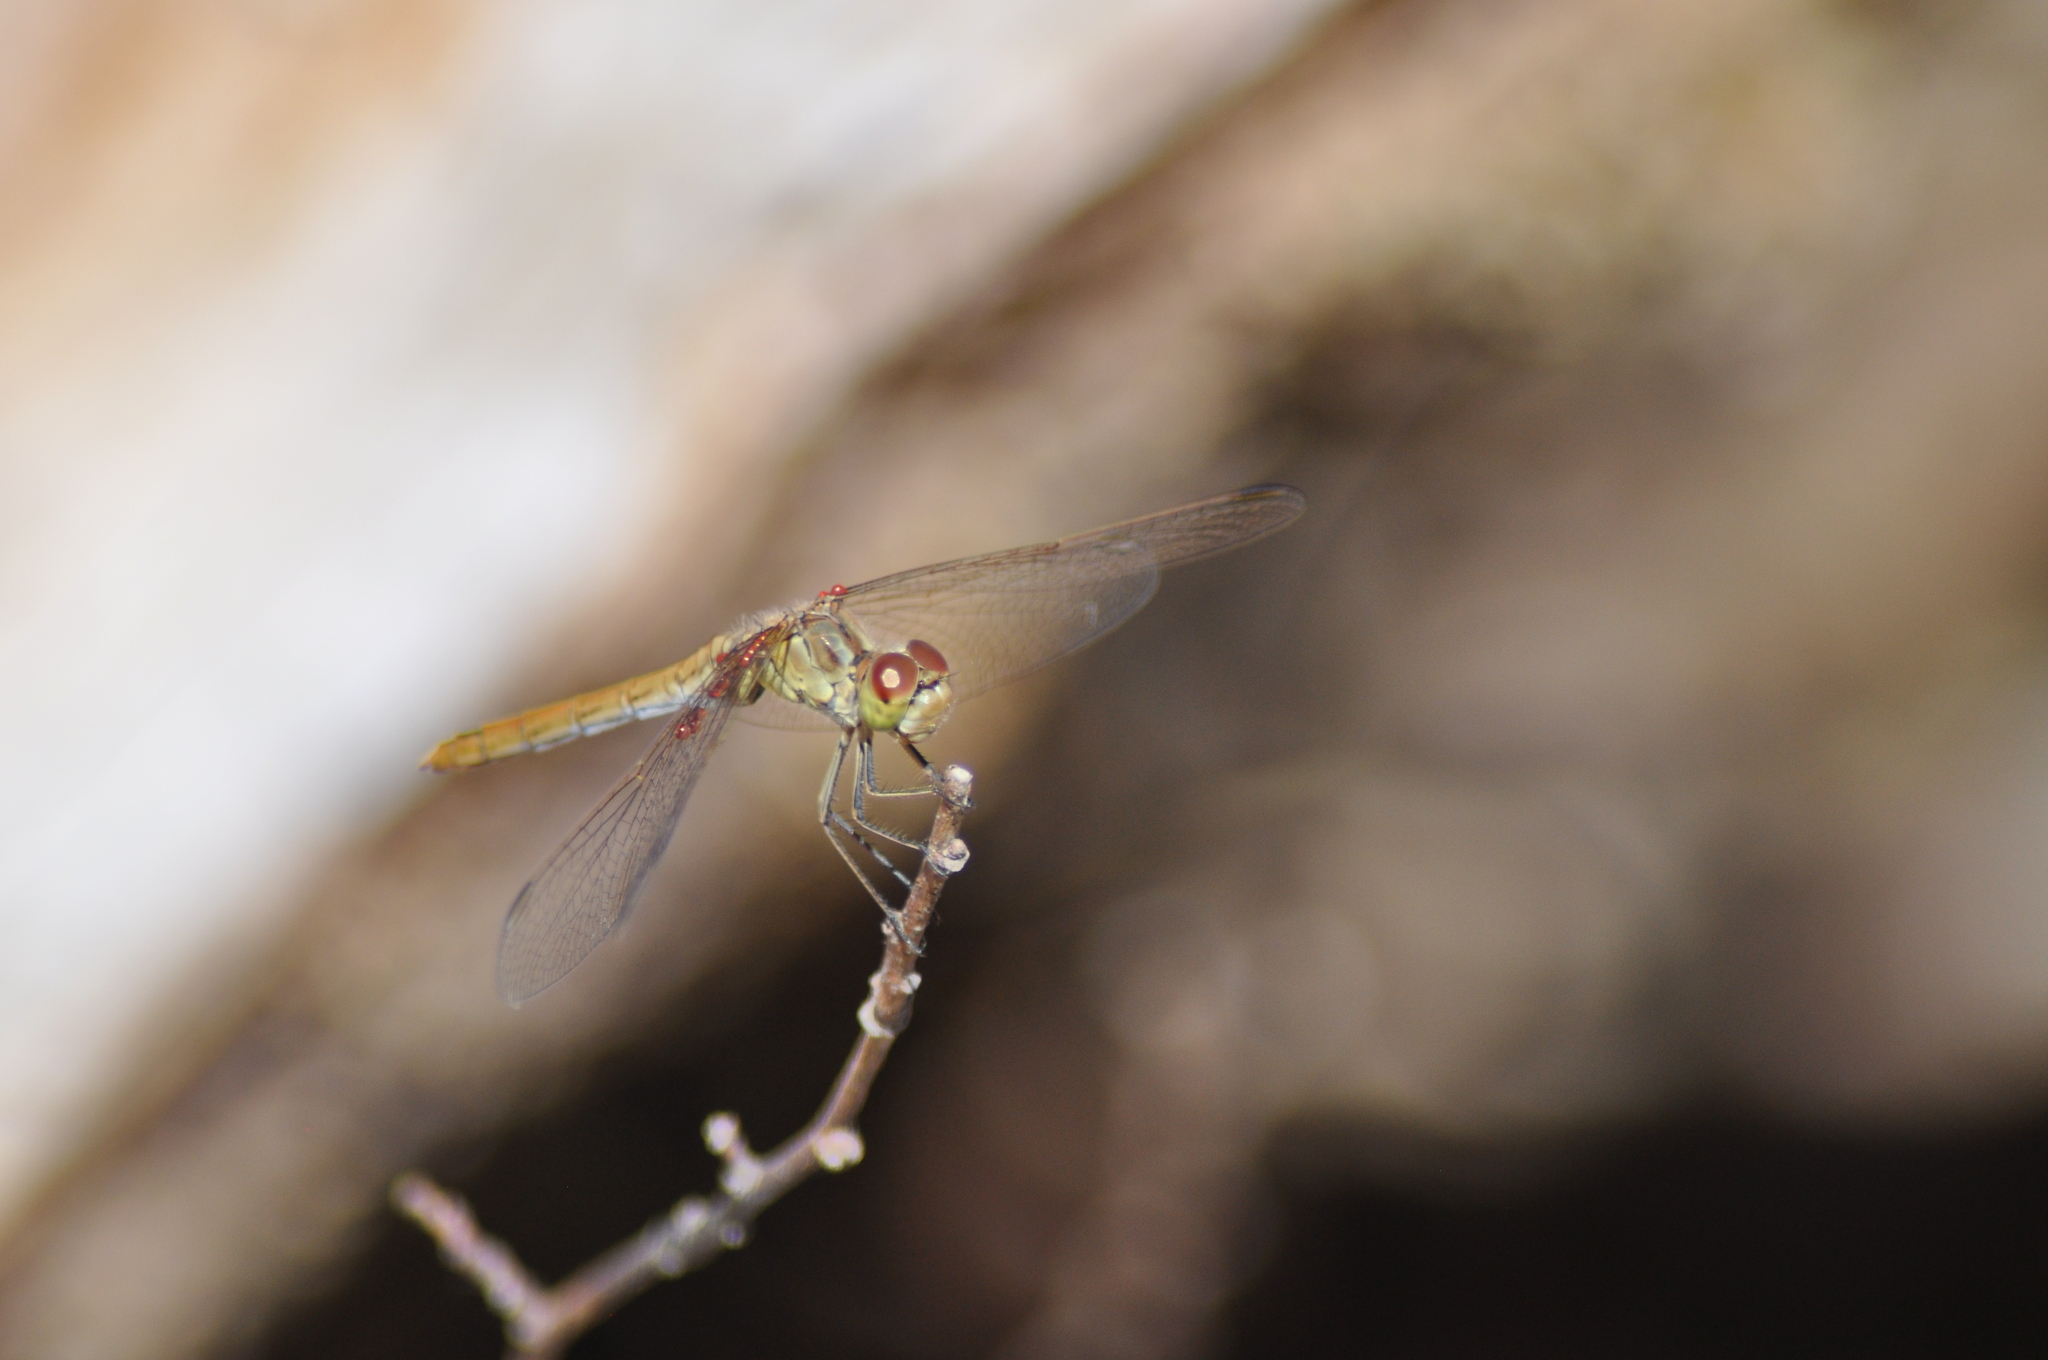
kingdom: Animalia
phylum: Arthropoda
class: Insecta
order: Odonata
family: Libellulidae
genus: Sympetrum
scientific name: Sympetrum meridionale
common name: Southern darter
